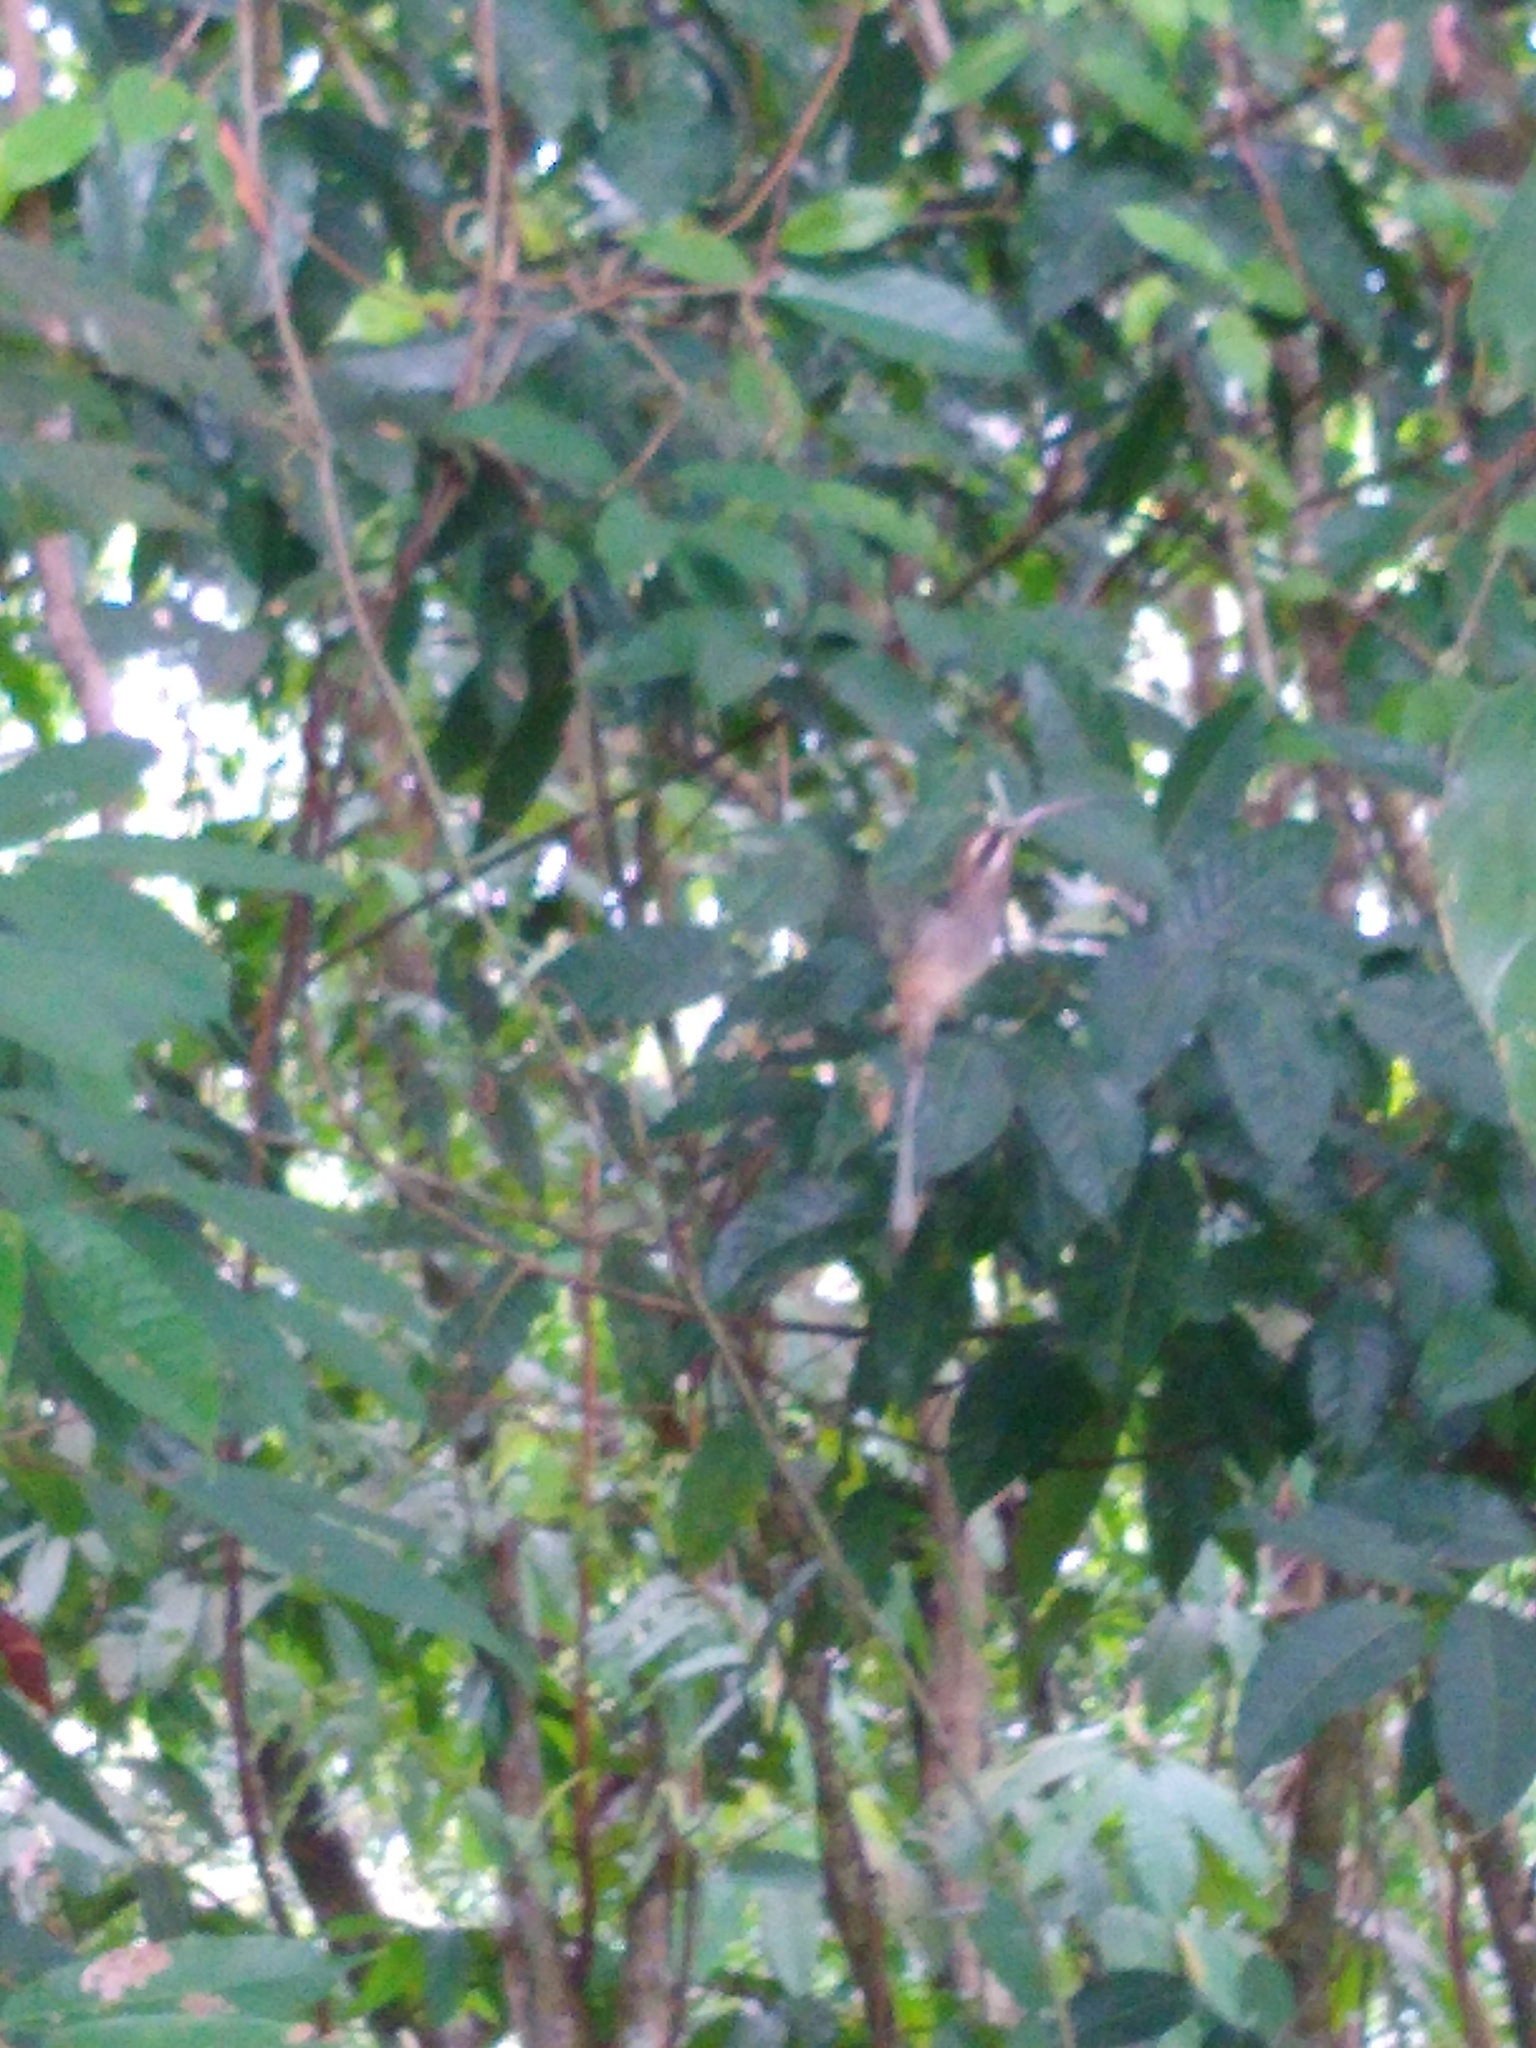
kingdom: Animalia
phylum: Chordata
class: Aves
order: Apodiformes
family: Trochilidae
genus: Phaethornis
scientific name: Phaethornis longirostris
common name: Long-billed hermit
